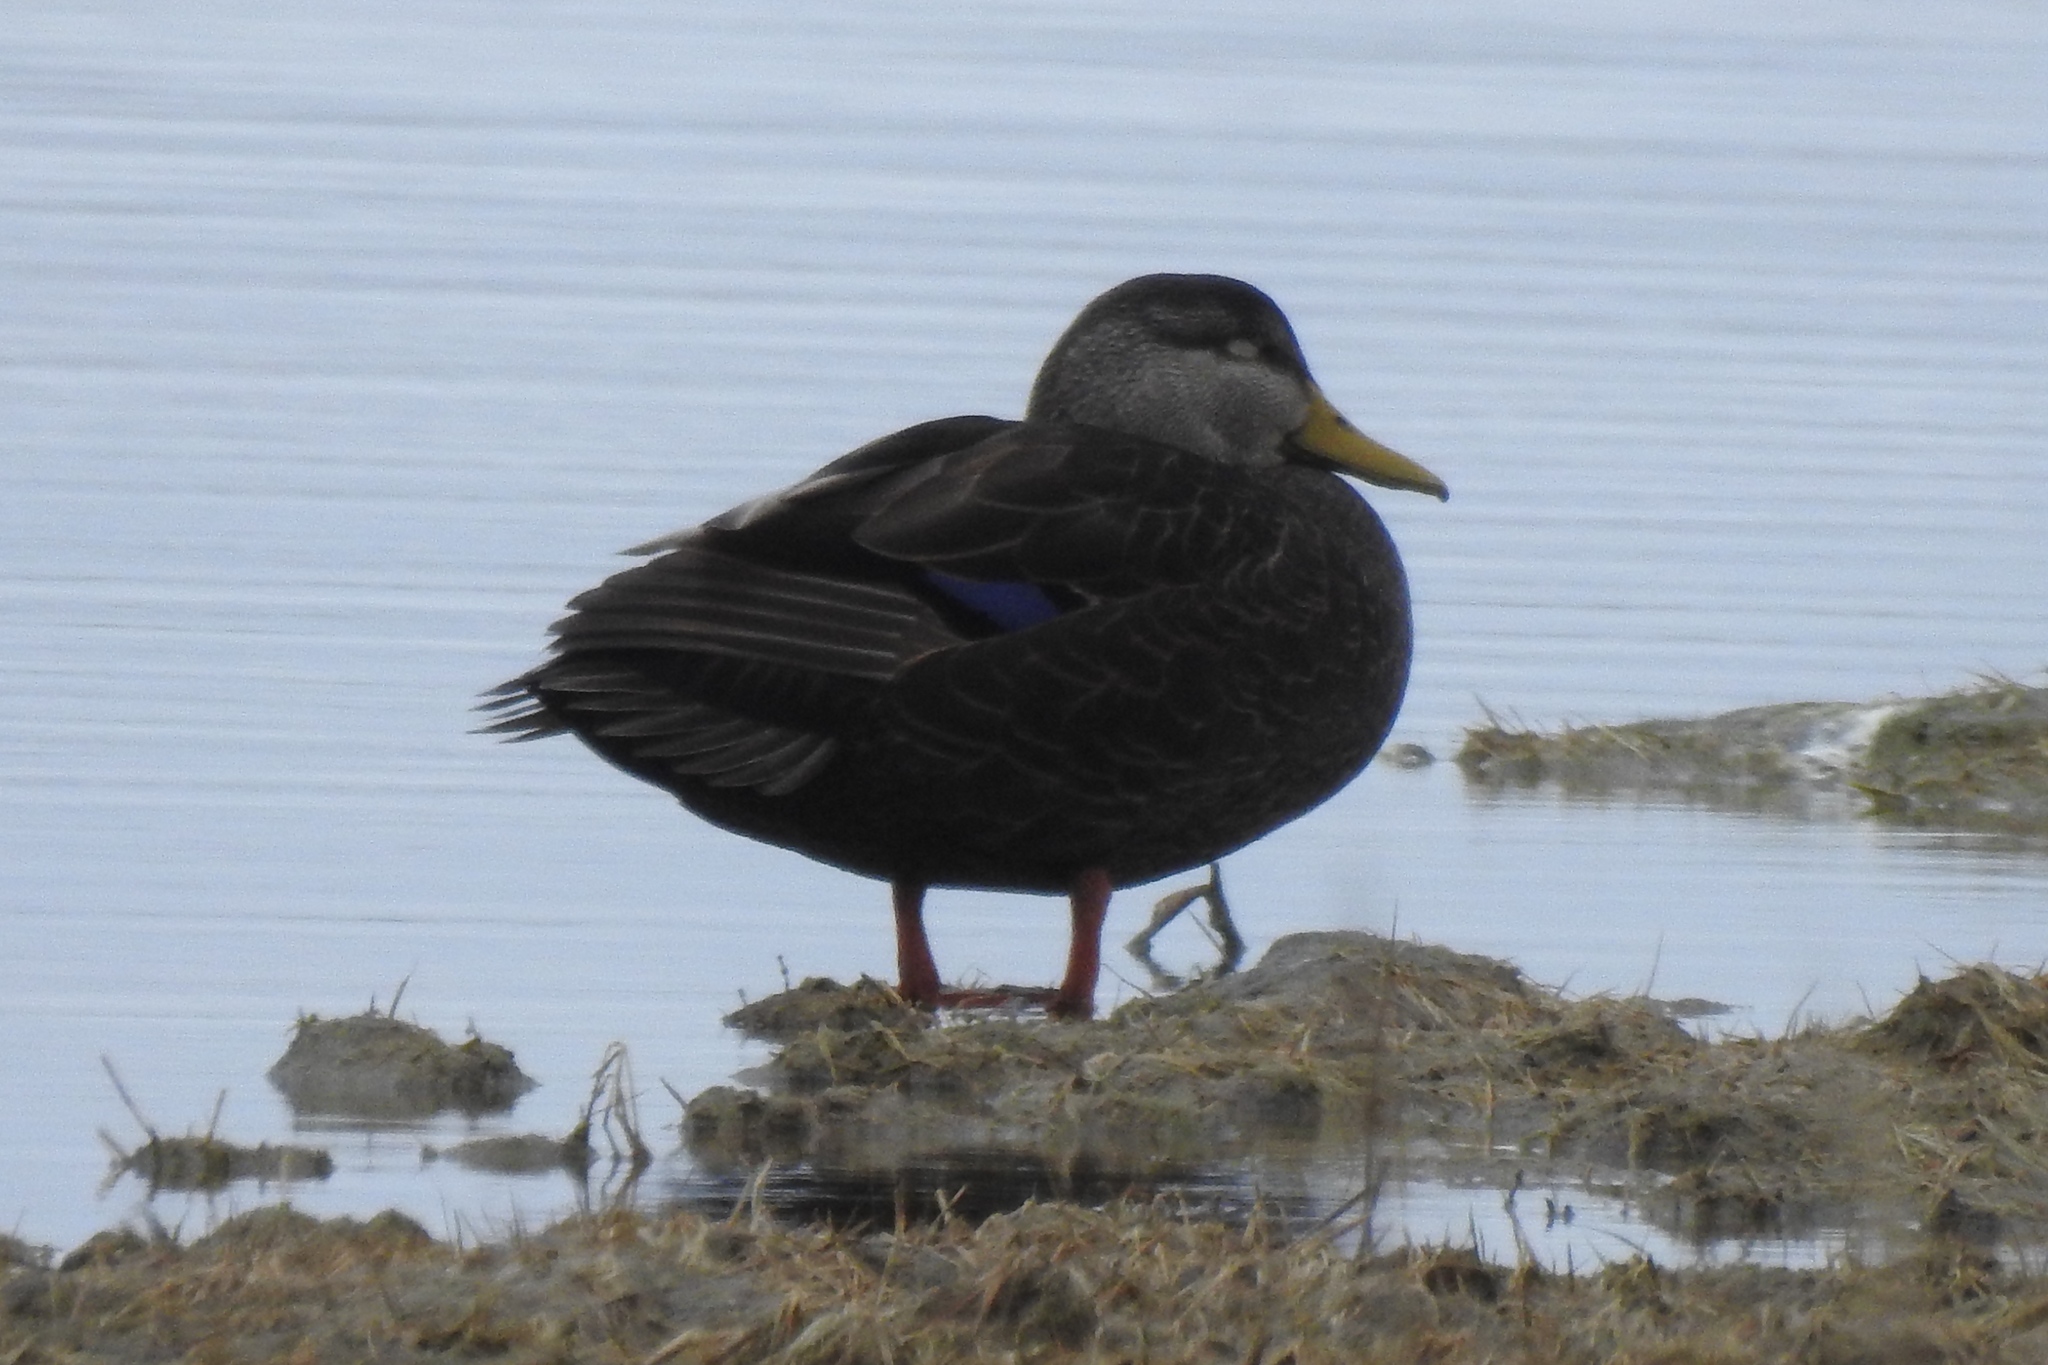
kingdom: Animalia
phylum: Chordata
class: Aves
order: Anseriformes
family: Anatidae
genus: Anas
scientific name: Anas rubripes
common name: American black duck
